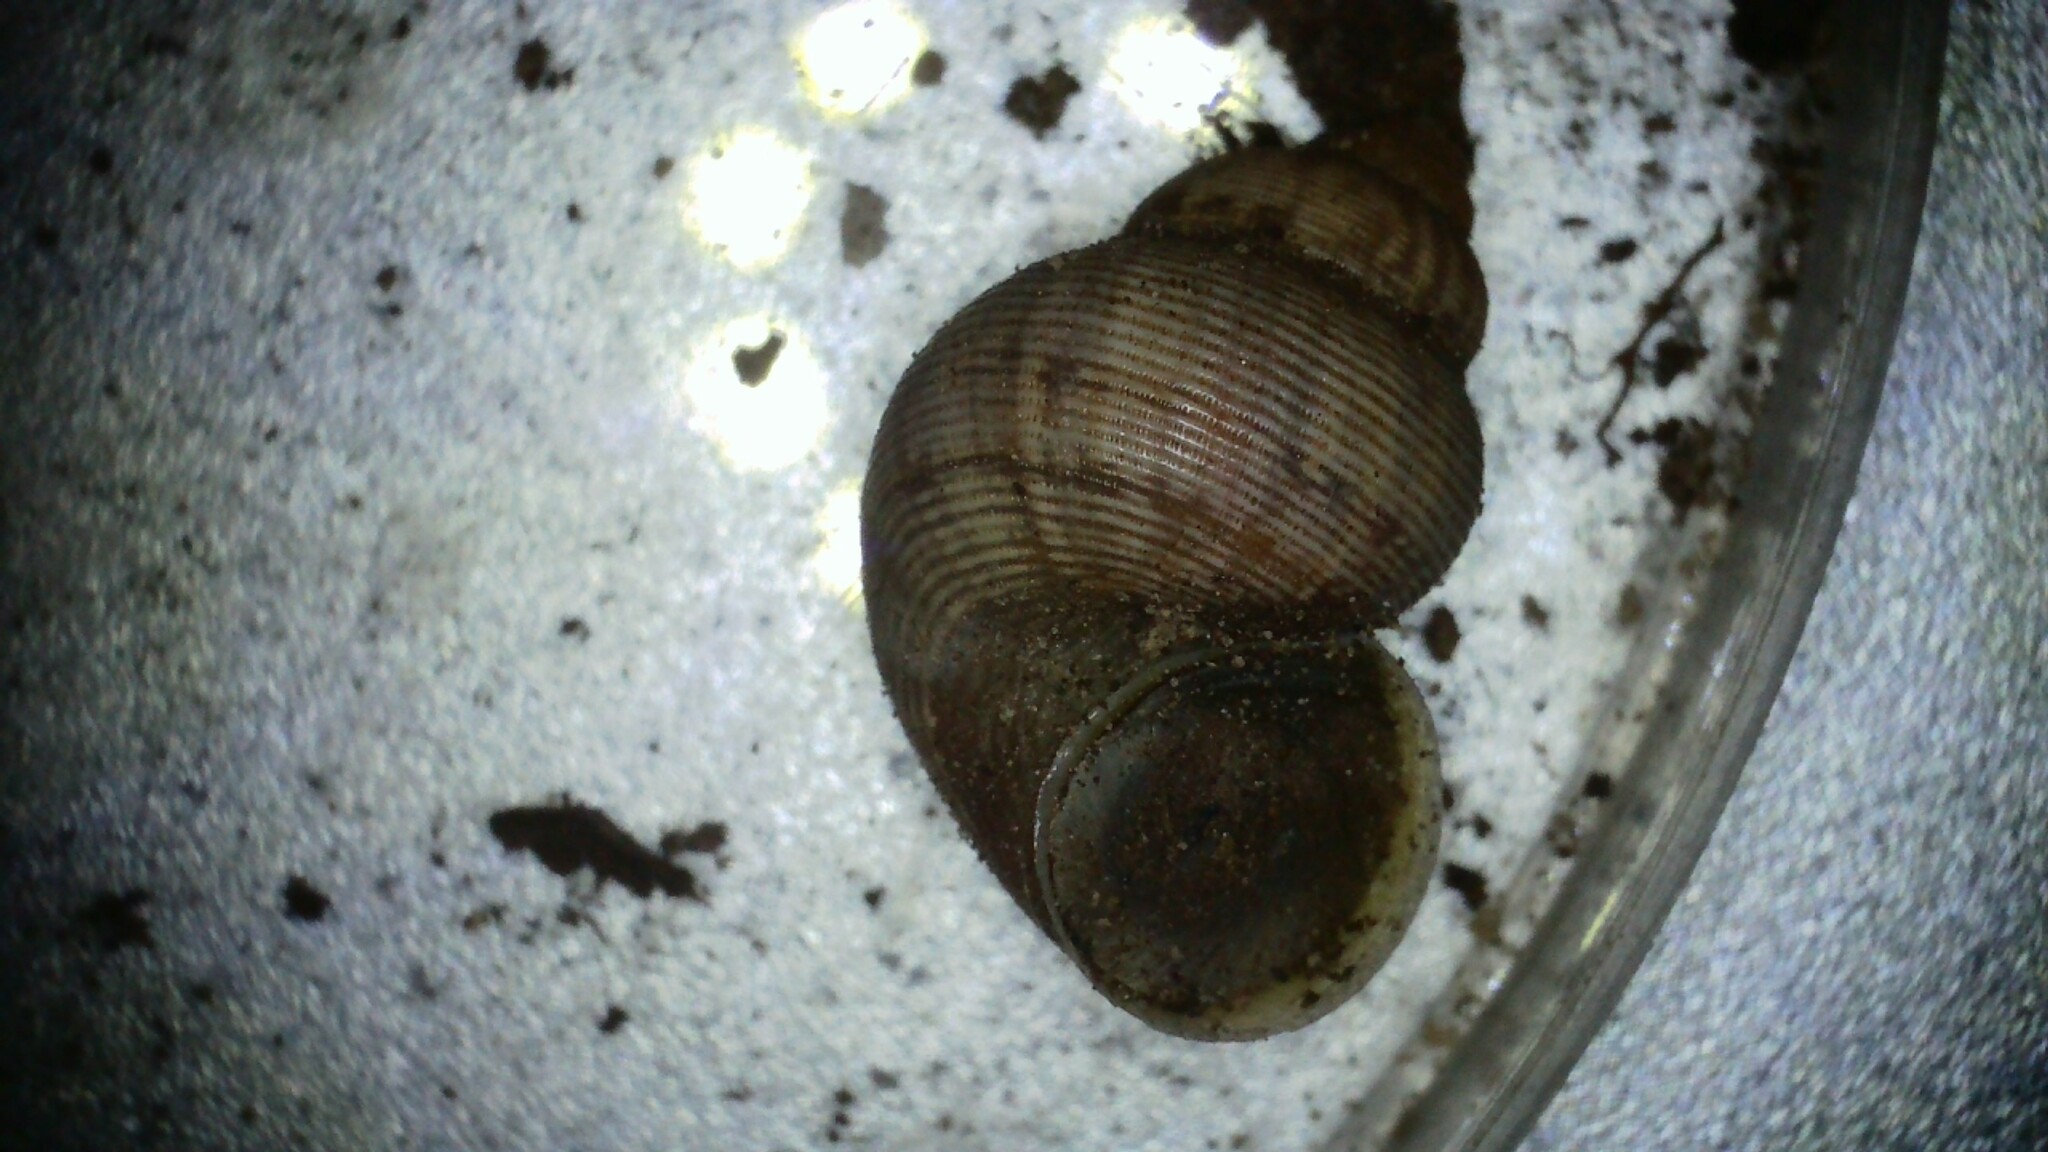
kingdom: Animalia
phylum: Mollusca
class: Gastropoda
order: Littorinimorpha
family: Pomatiidae
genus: Pomatias
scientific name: Pomatias elegans
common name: Red-mouthed snail
